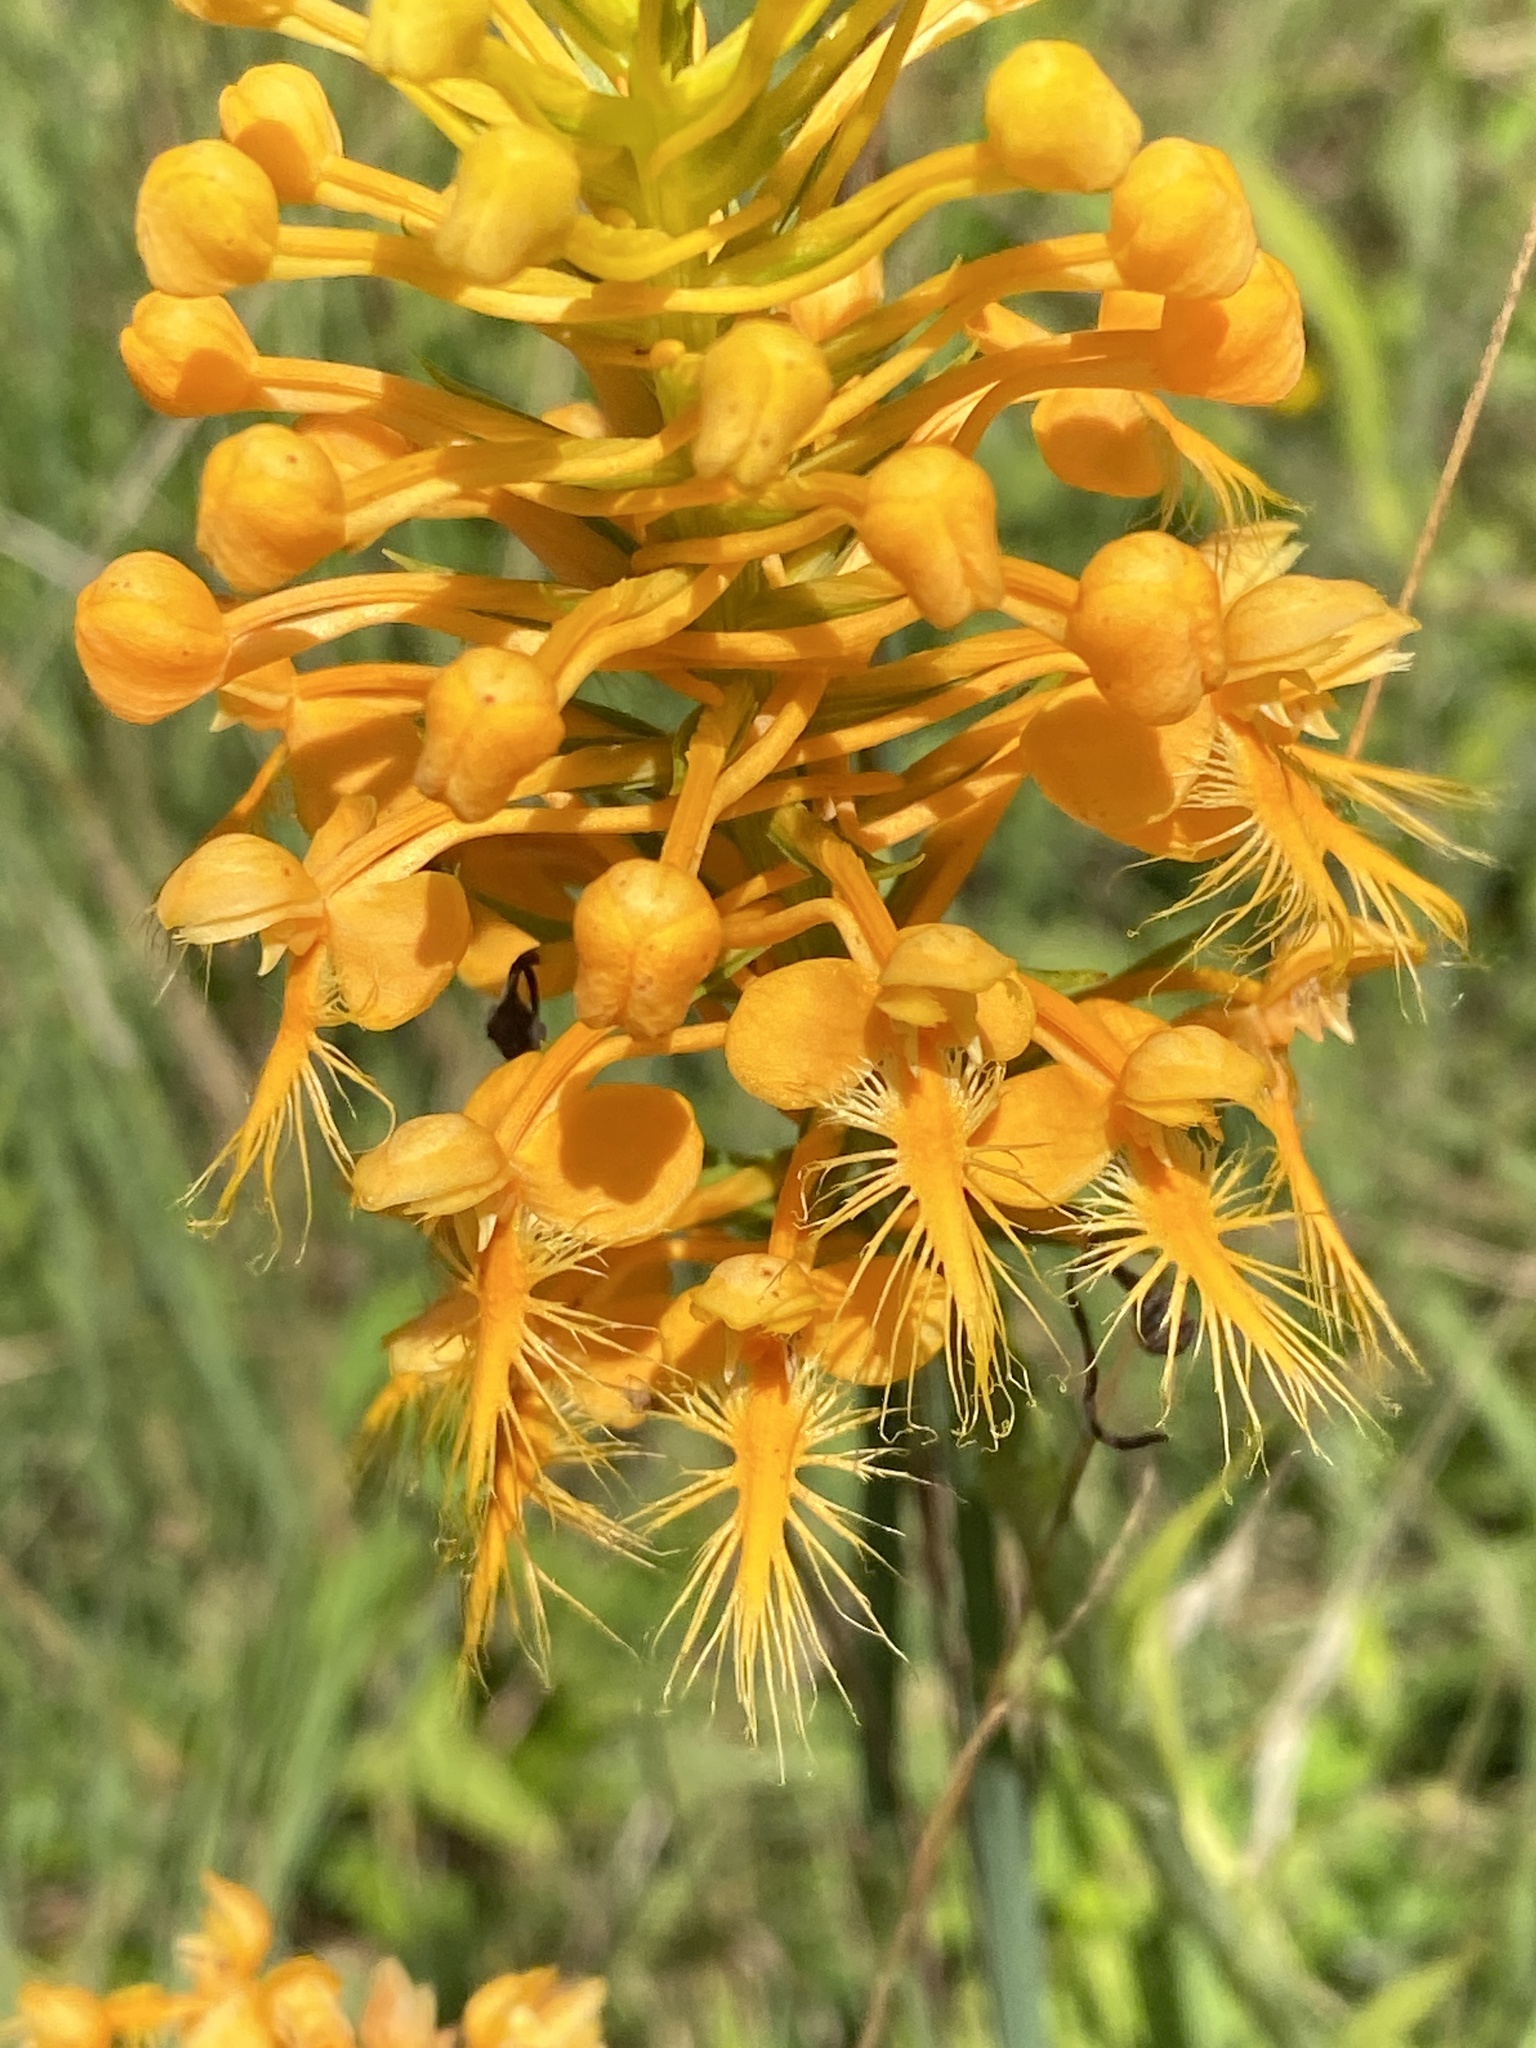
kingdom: Plantae
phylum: Tracheophyta
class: Liliopsida
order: Asparagales
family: Orchidaceae
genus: Platanthera
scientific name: Platanthera ciliaris
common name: Yellow fringed orchid
